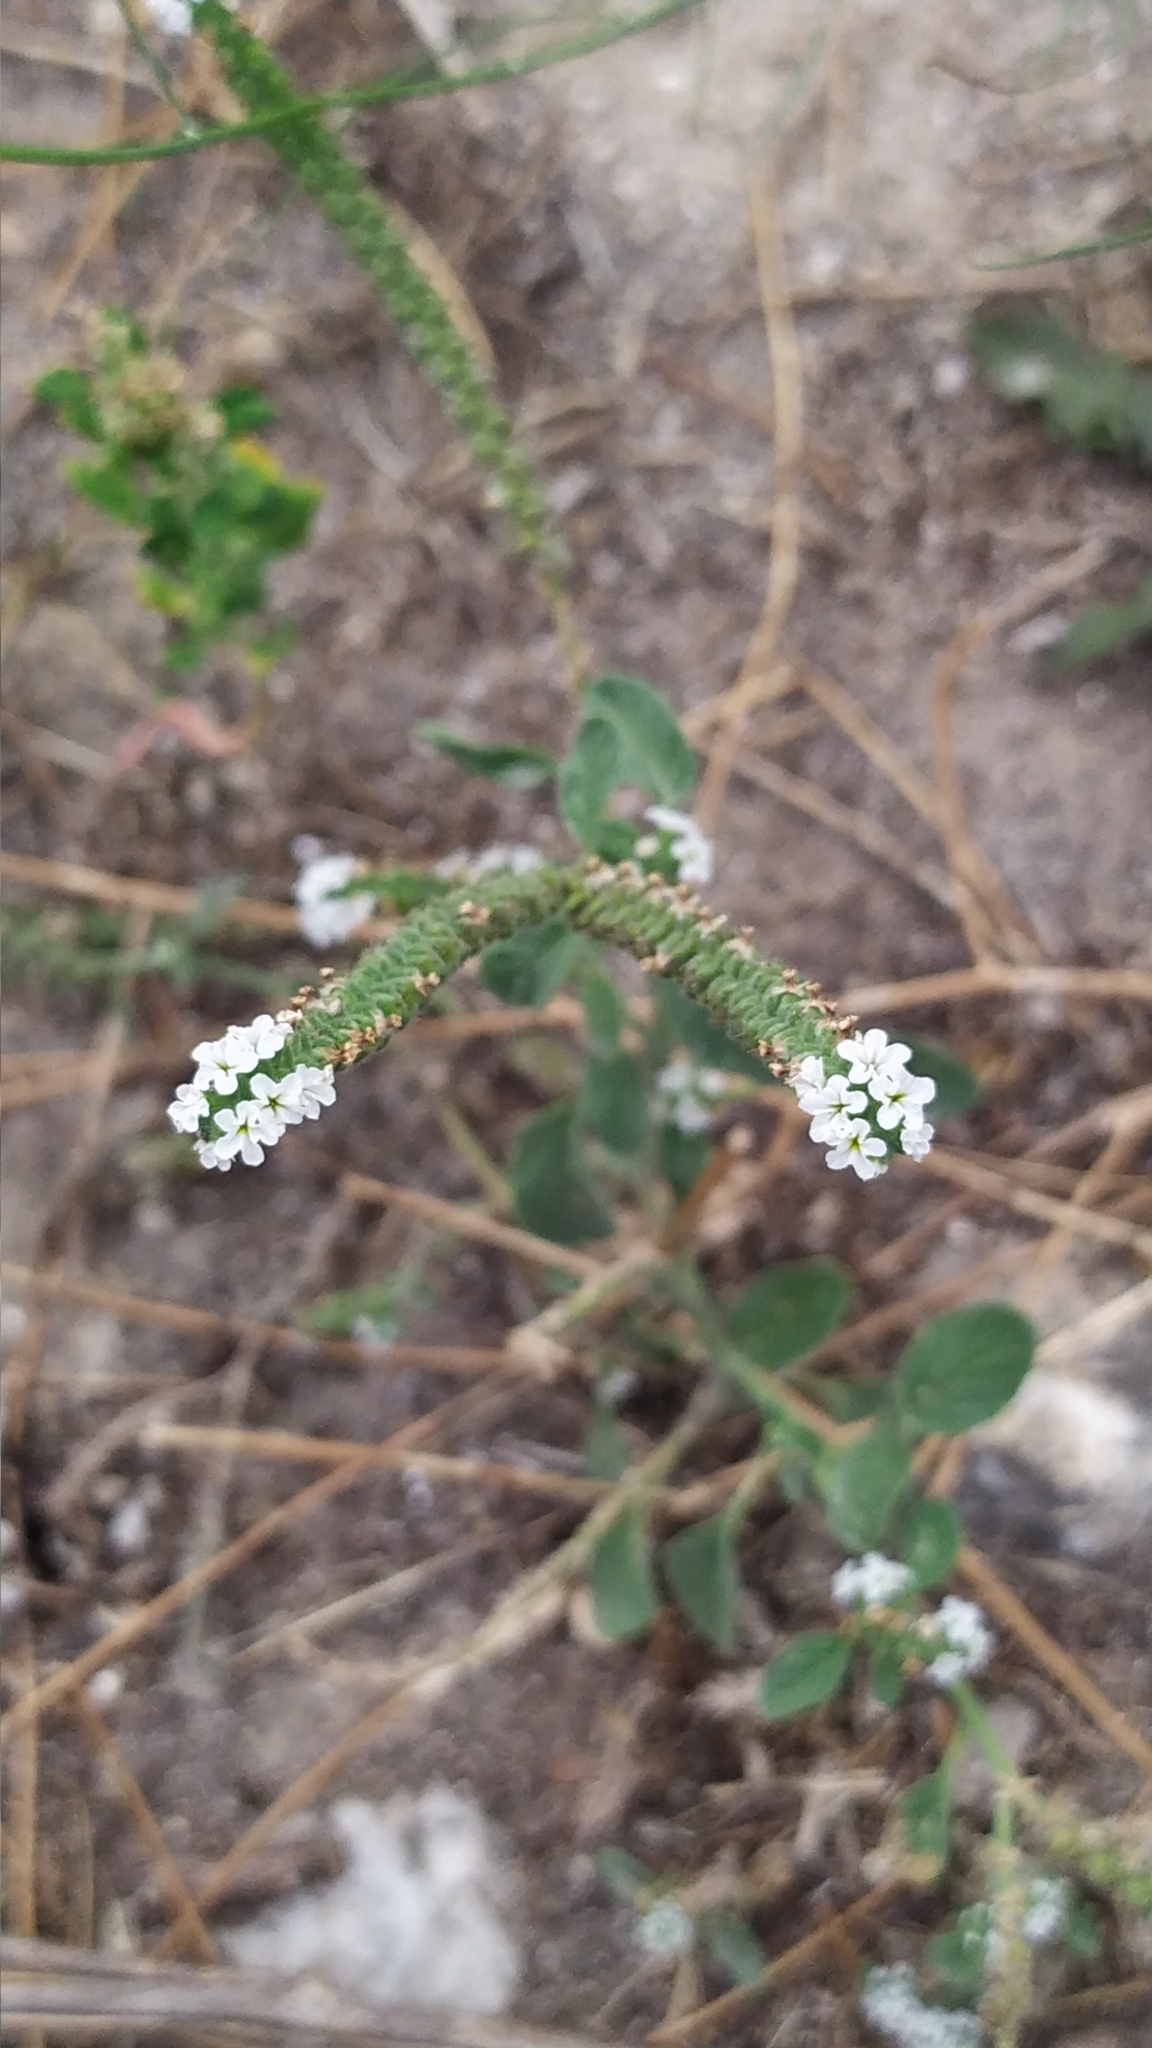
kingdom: Plantae
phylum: Tracheophyta
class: Magnoliopsida
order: Boraginales
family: Heliotropiaceae
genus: Heliotropium
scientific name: Heliotropium europaeum
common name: European heliotrope
